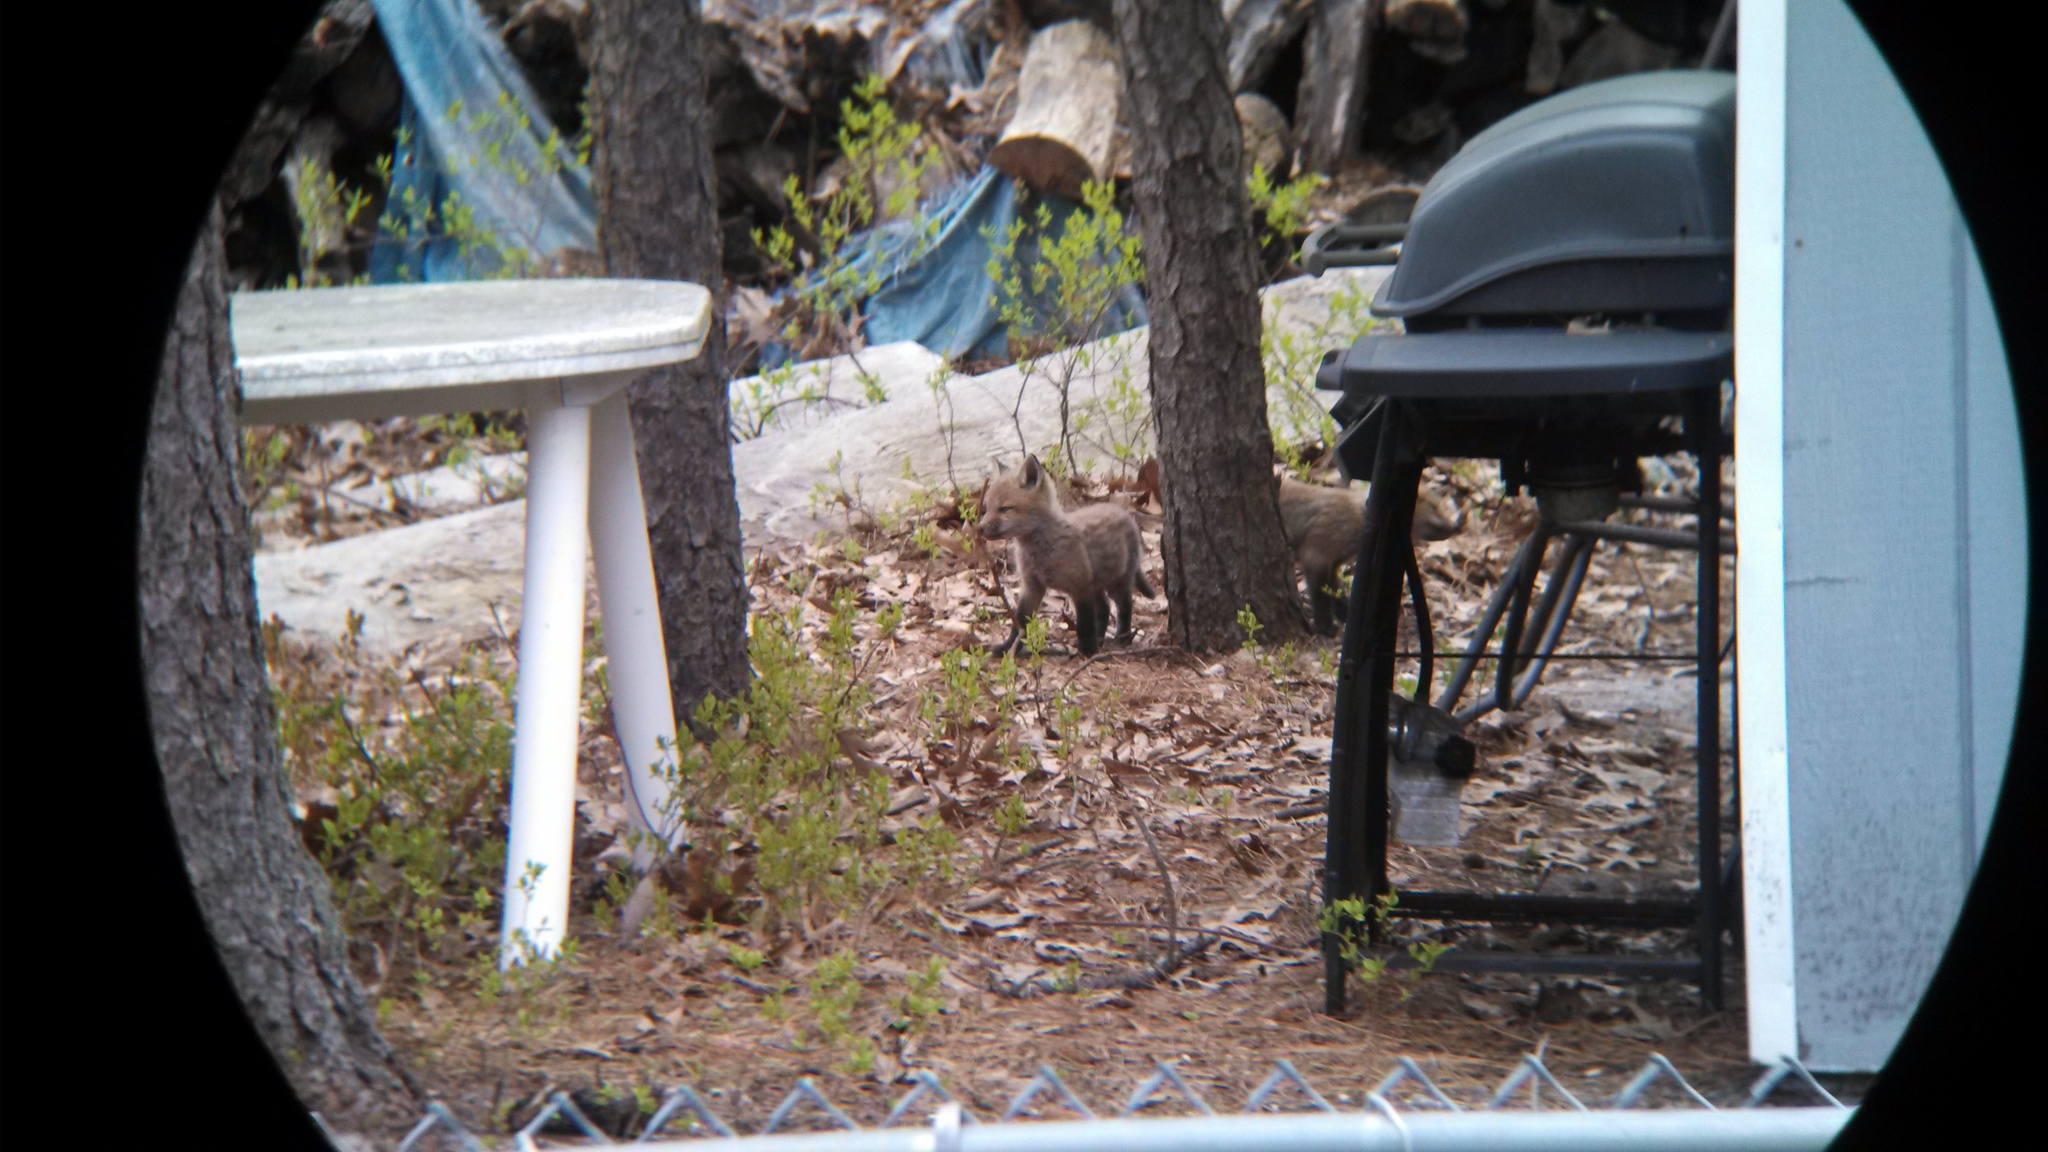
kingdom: Animalia
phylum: Chordata
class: Mammalia
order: Carnivora
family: Canidae
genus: Vulpes
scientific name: Vulpes vulpes
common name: Red fox
